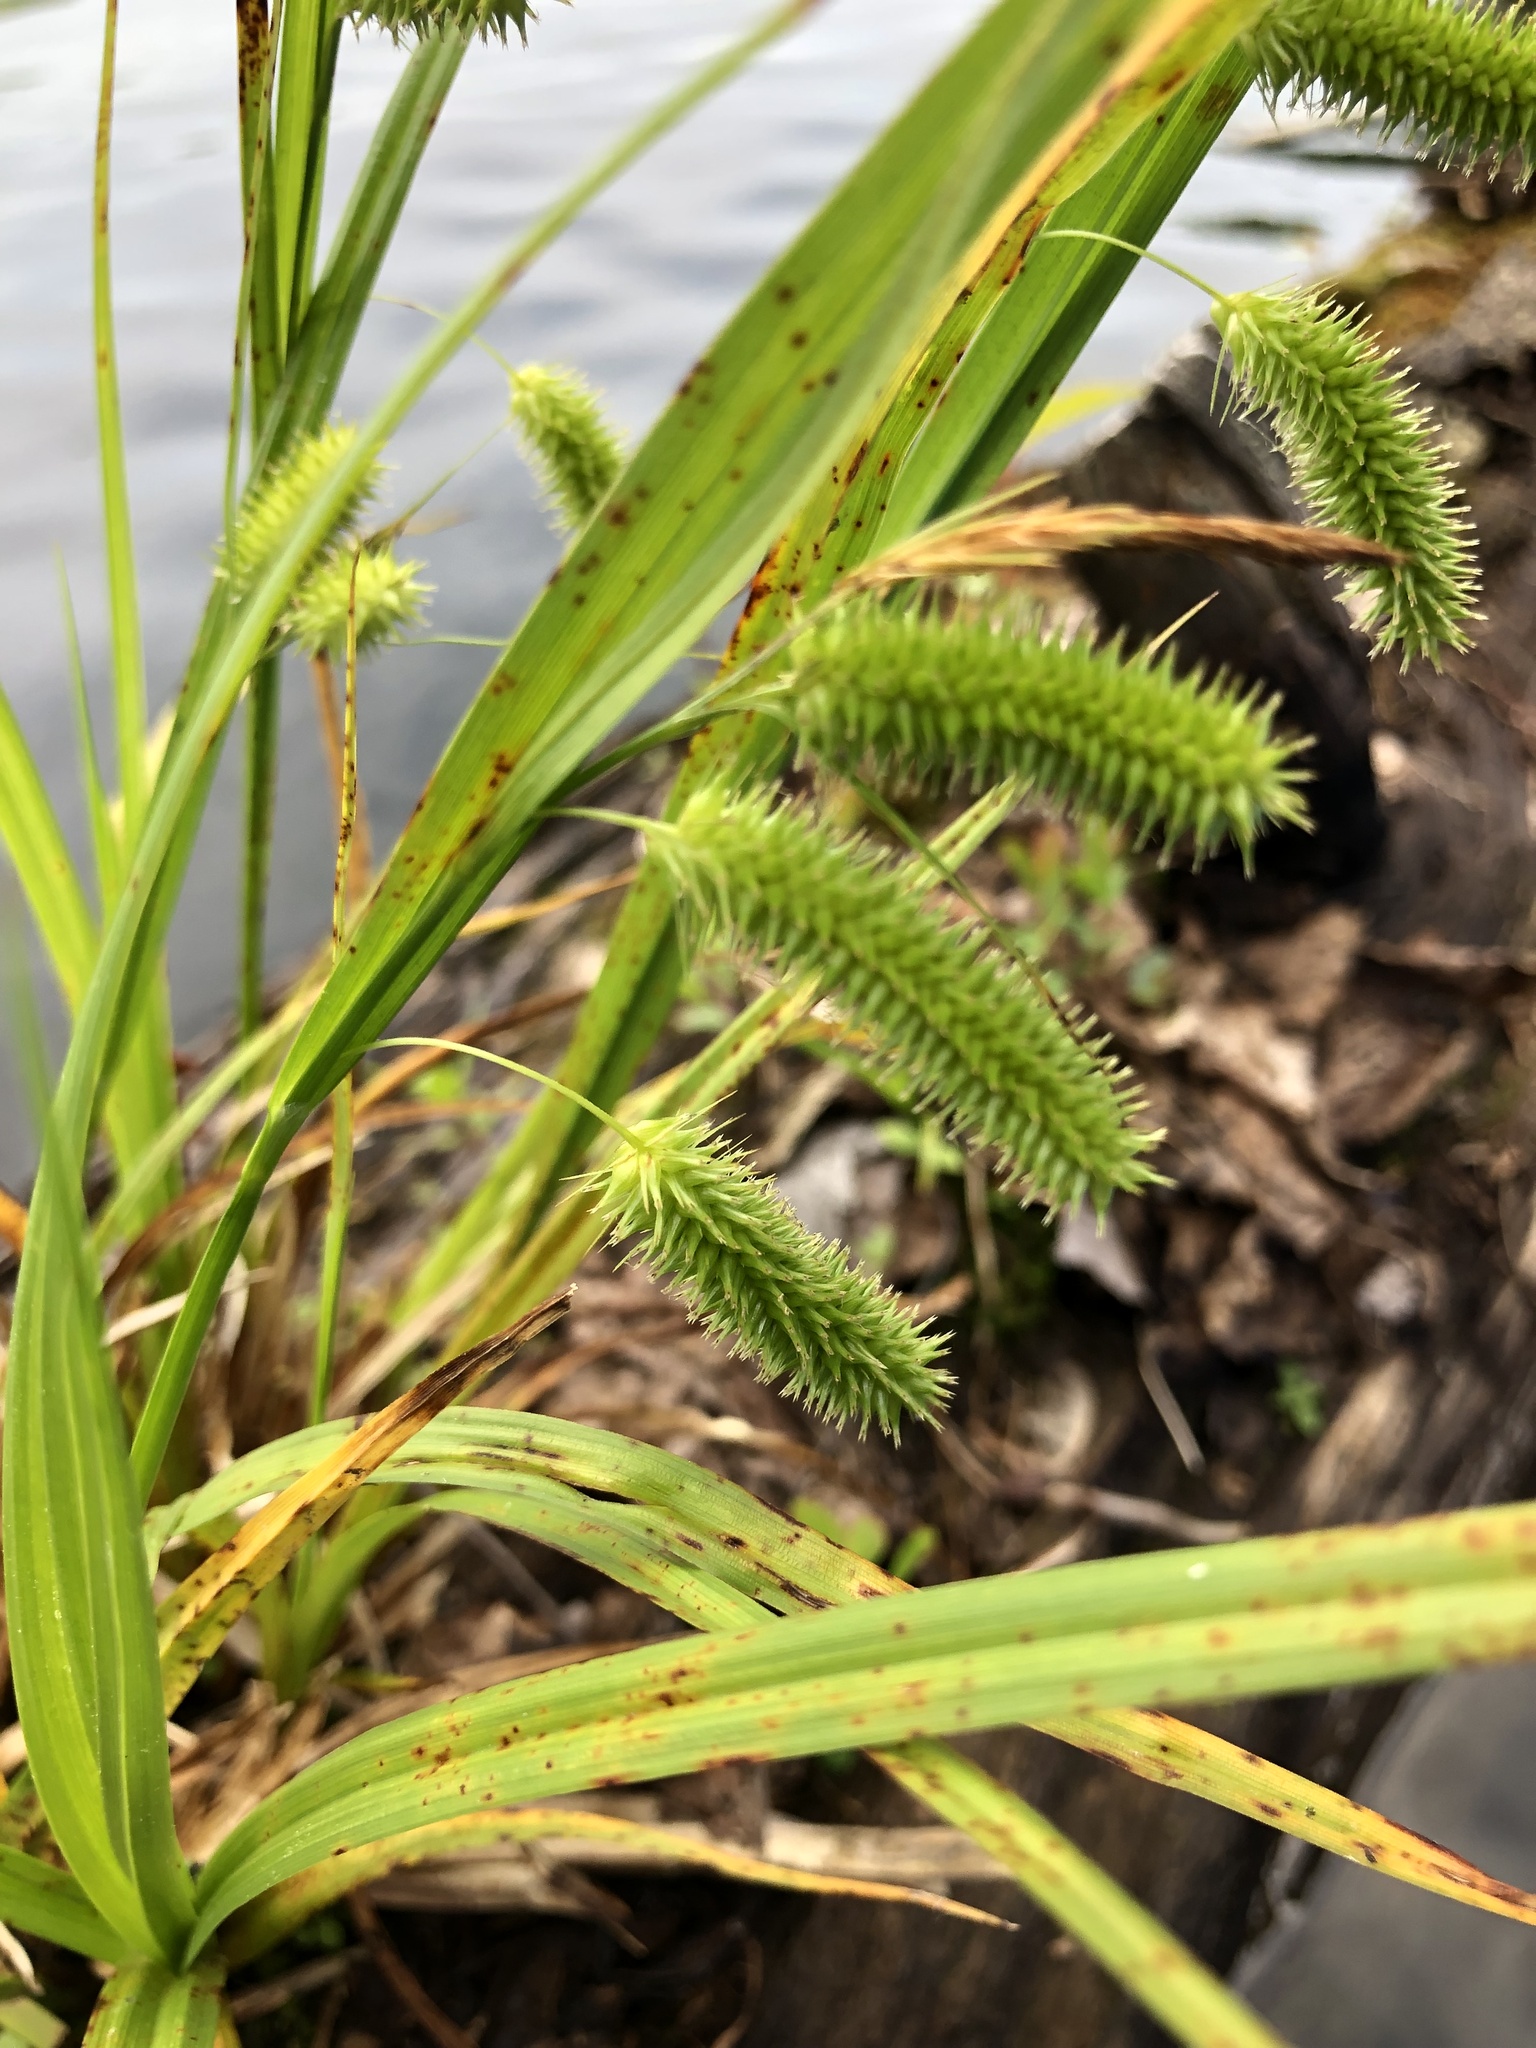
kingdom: Plantae
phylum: Tracheophyta
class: Liliopsida
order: Poales
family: Cyperaceae
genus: Carex
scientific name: Carex pseudocyperus
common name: Cyperus sedge
